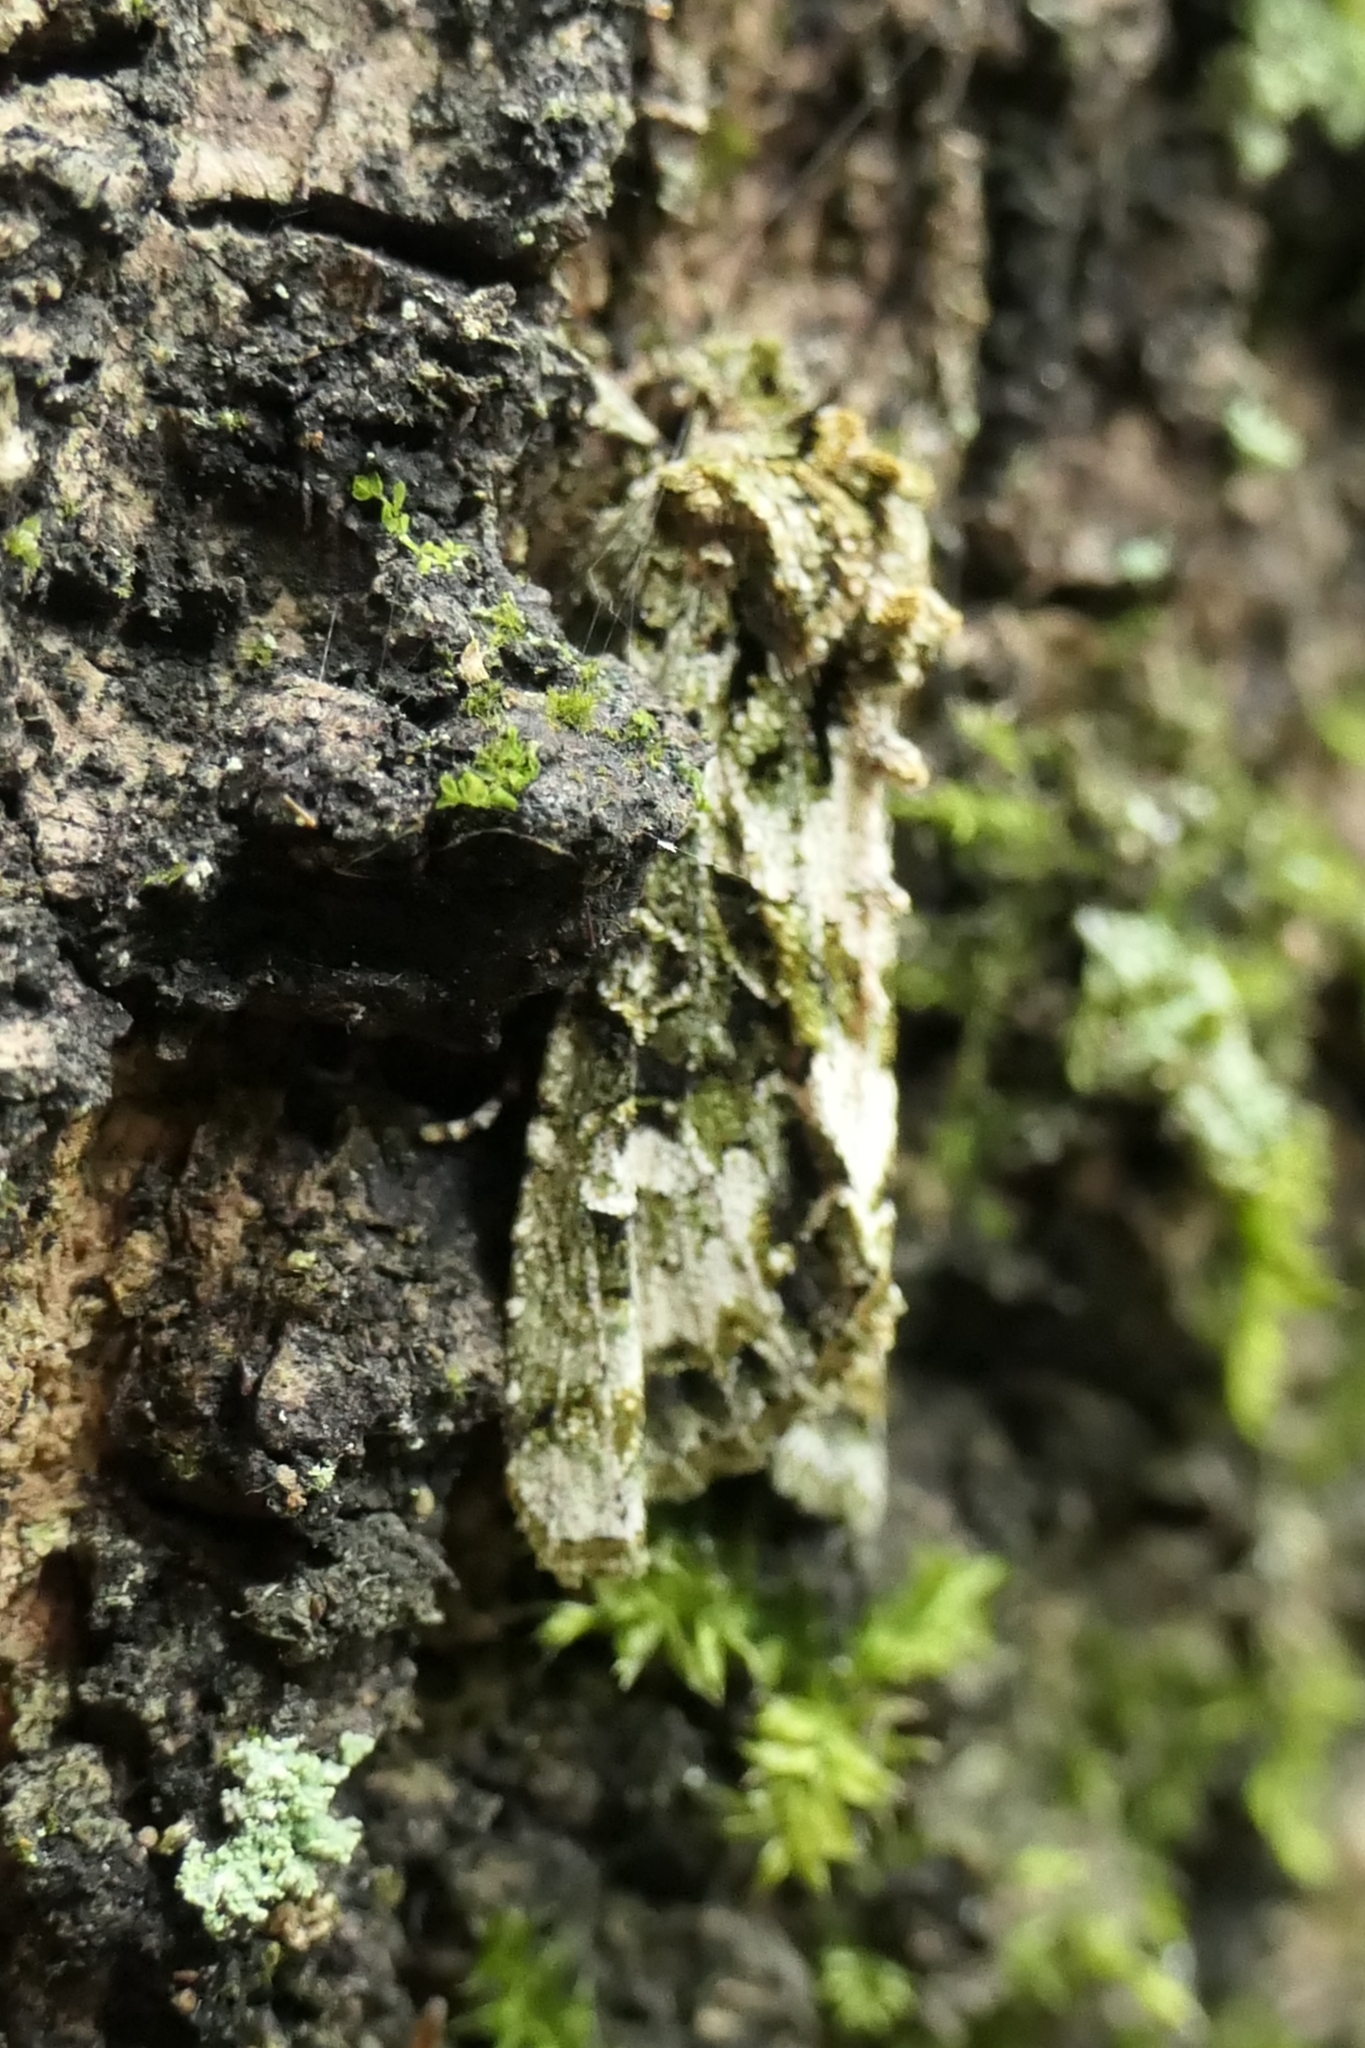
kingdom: Animalia
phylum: Arthropoda
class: Insecta
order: Lepidoptera
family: Noctuidae
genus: Ichneutica
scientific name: Ichneutica
